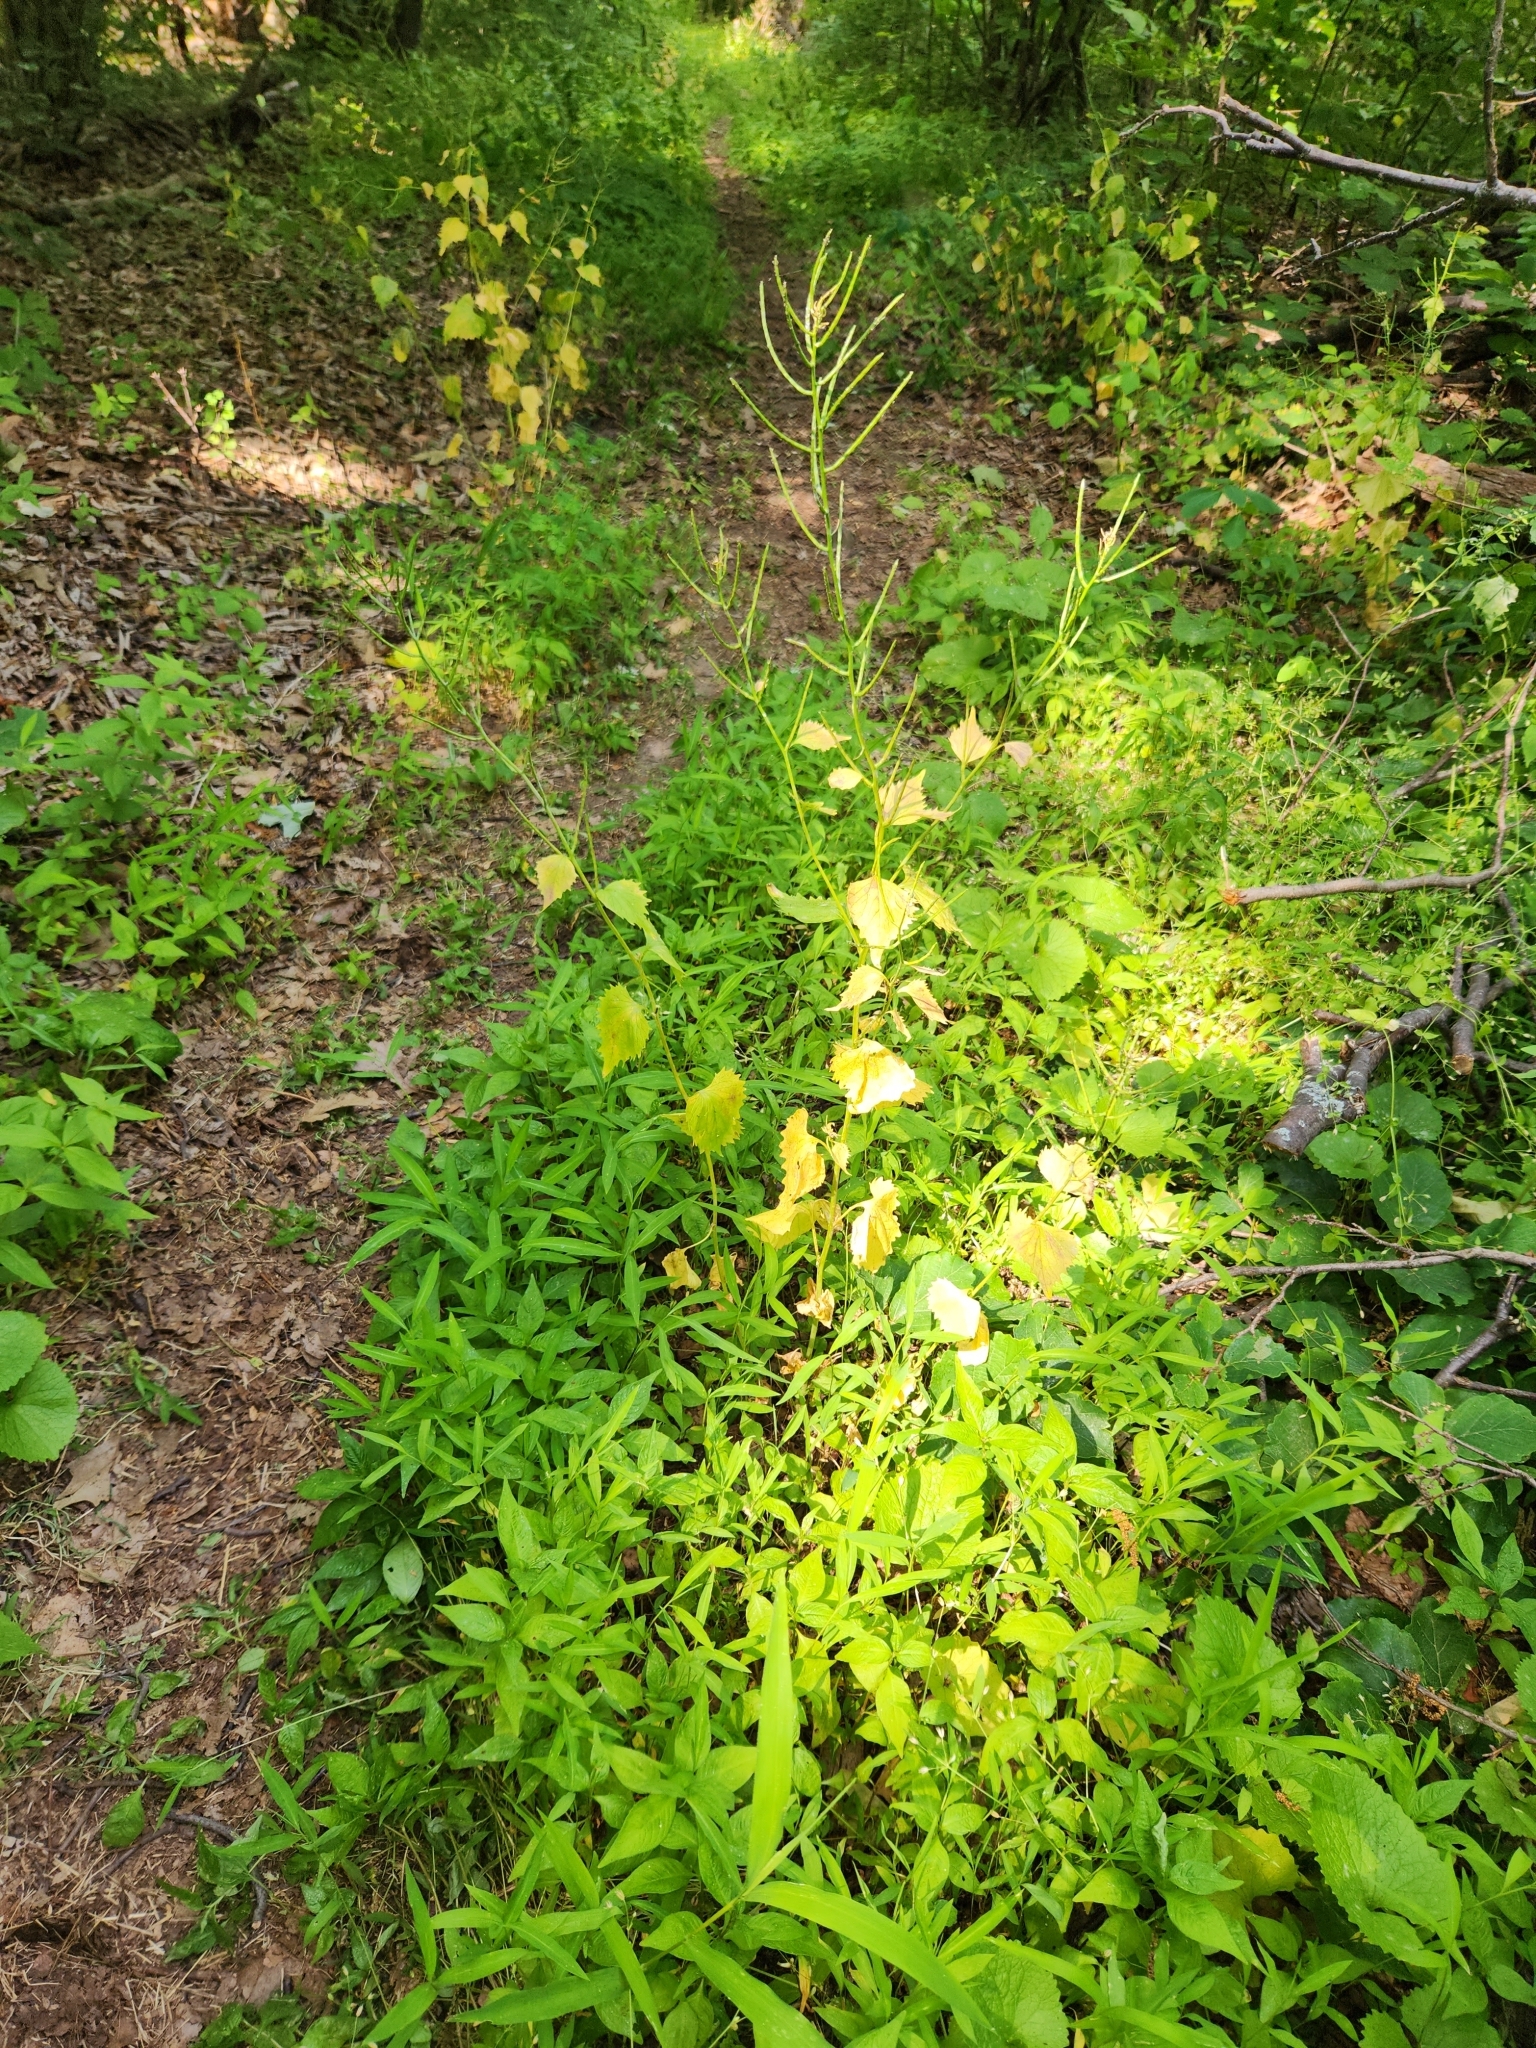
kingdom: Plantae
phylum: Tracheophyta
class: Magnoliopsida
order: Brassicales
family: Brassicaceae
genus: Alliaria
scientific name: Alliaria petiolata
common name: Garlic mustard
